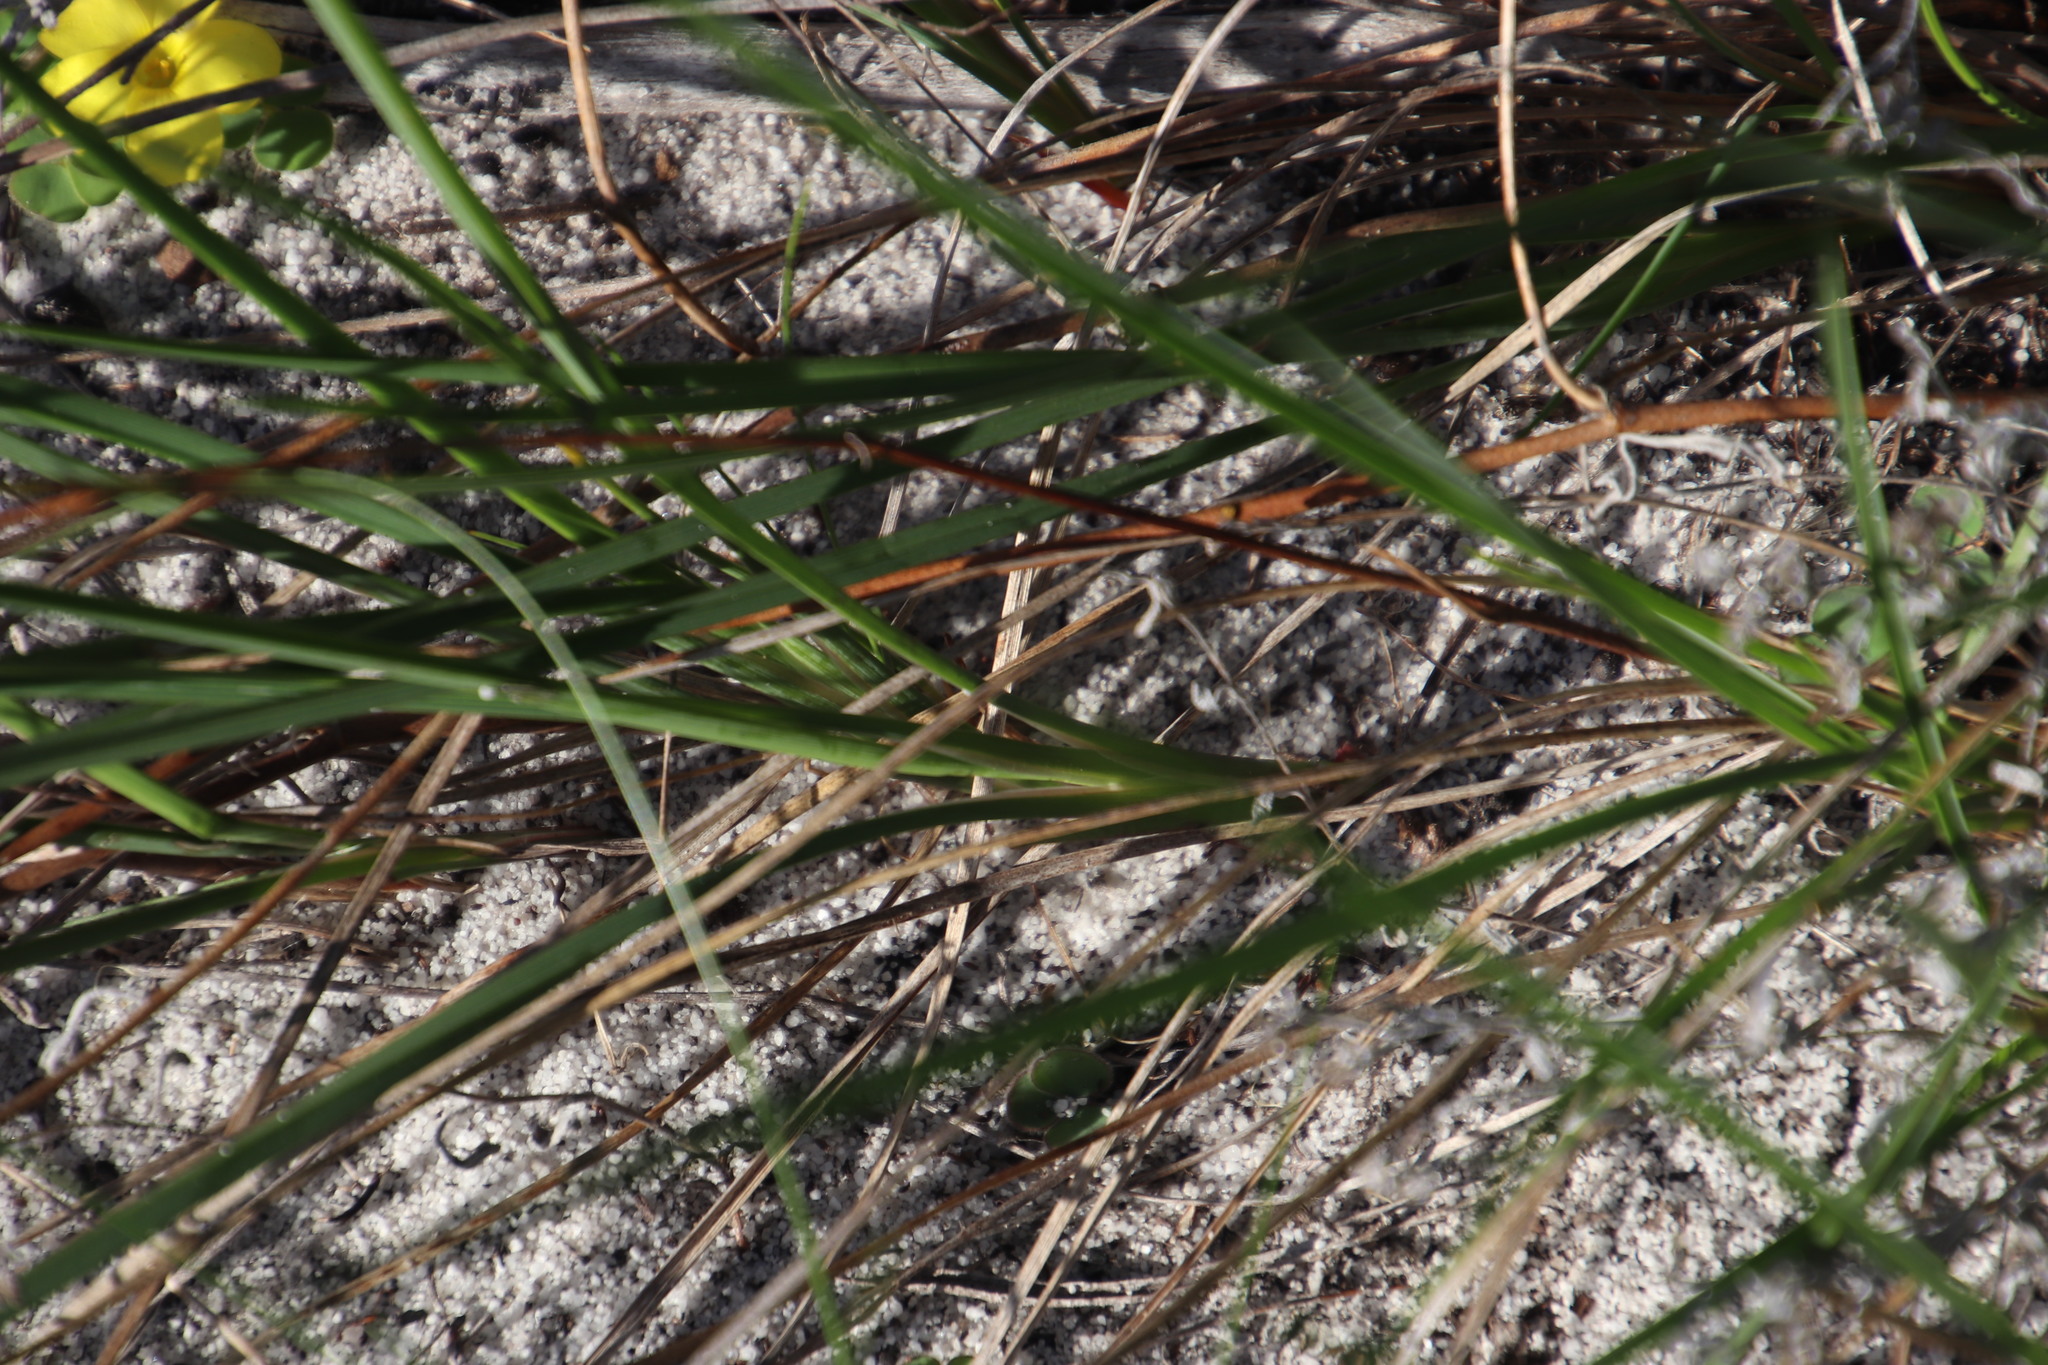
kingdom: Plantae
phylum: Tracheophyta
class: Liliopsida
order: Asparagales
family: Asphodelaceae
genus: Caesia
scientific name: Caesia contorta
